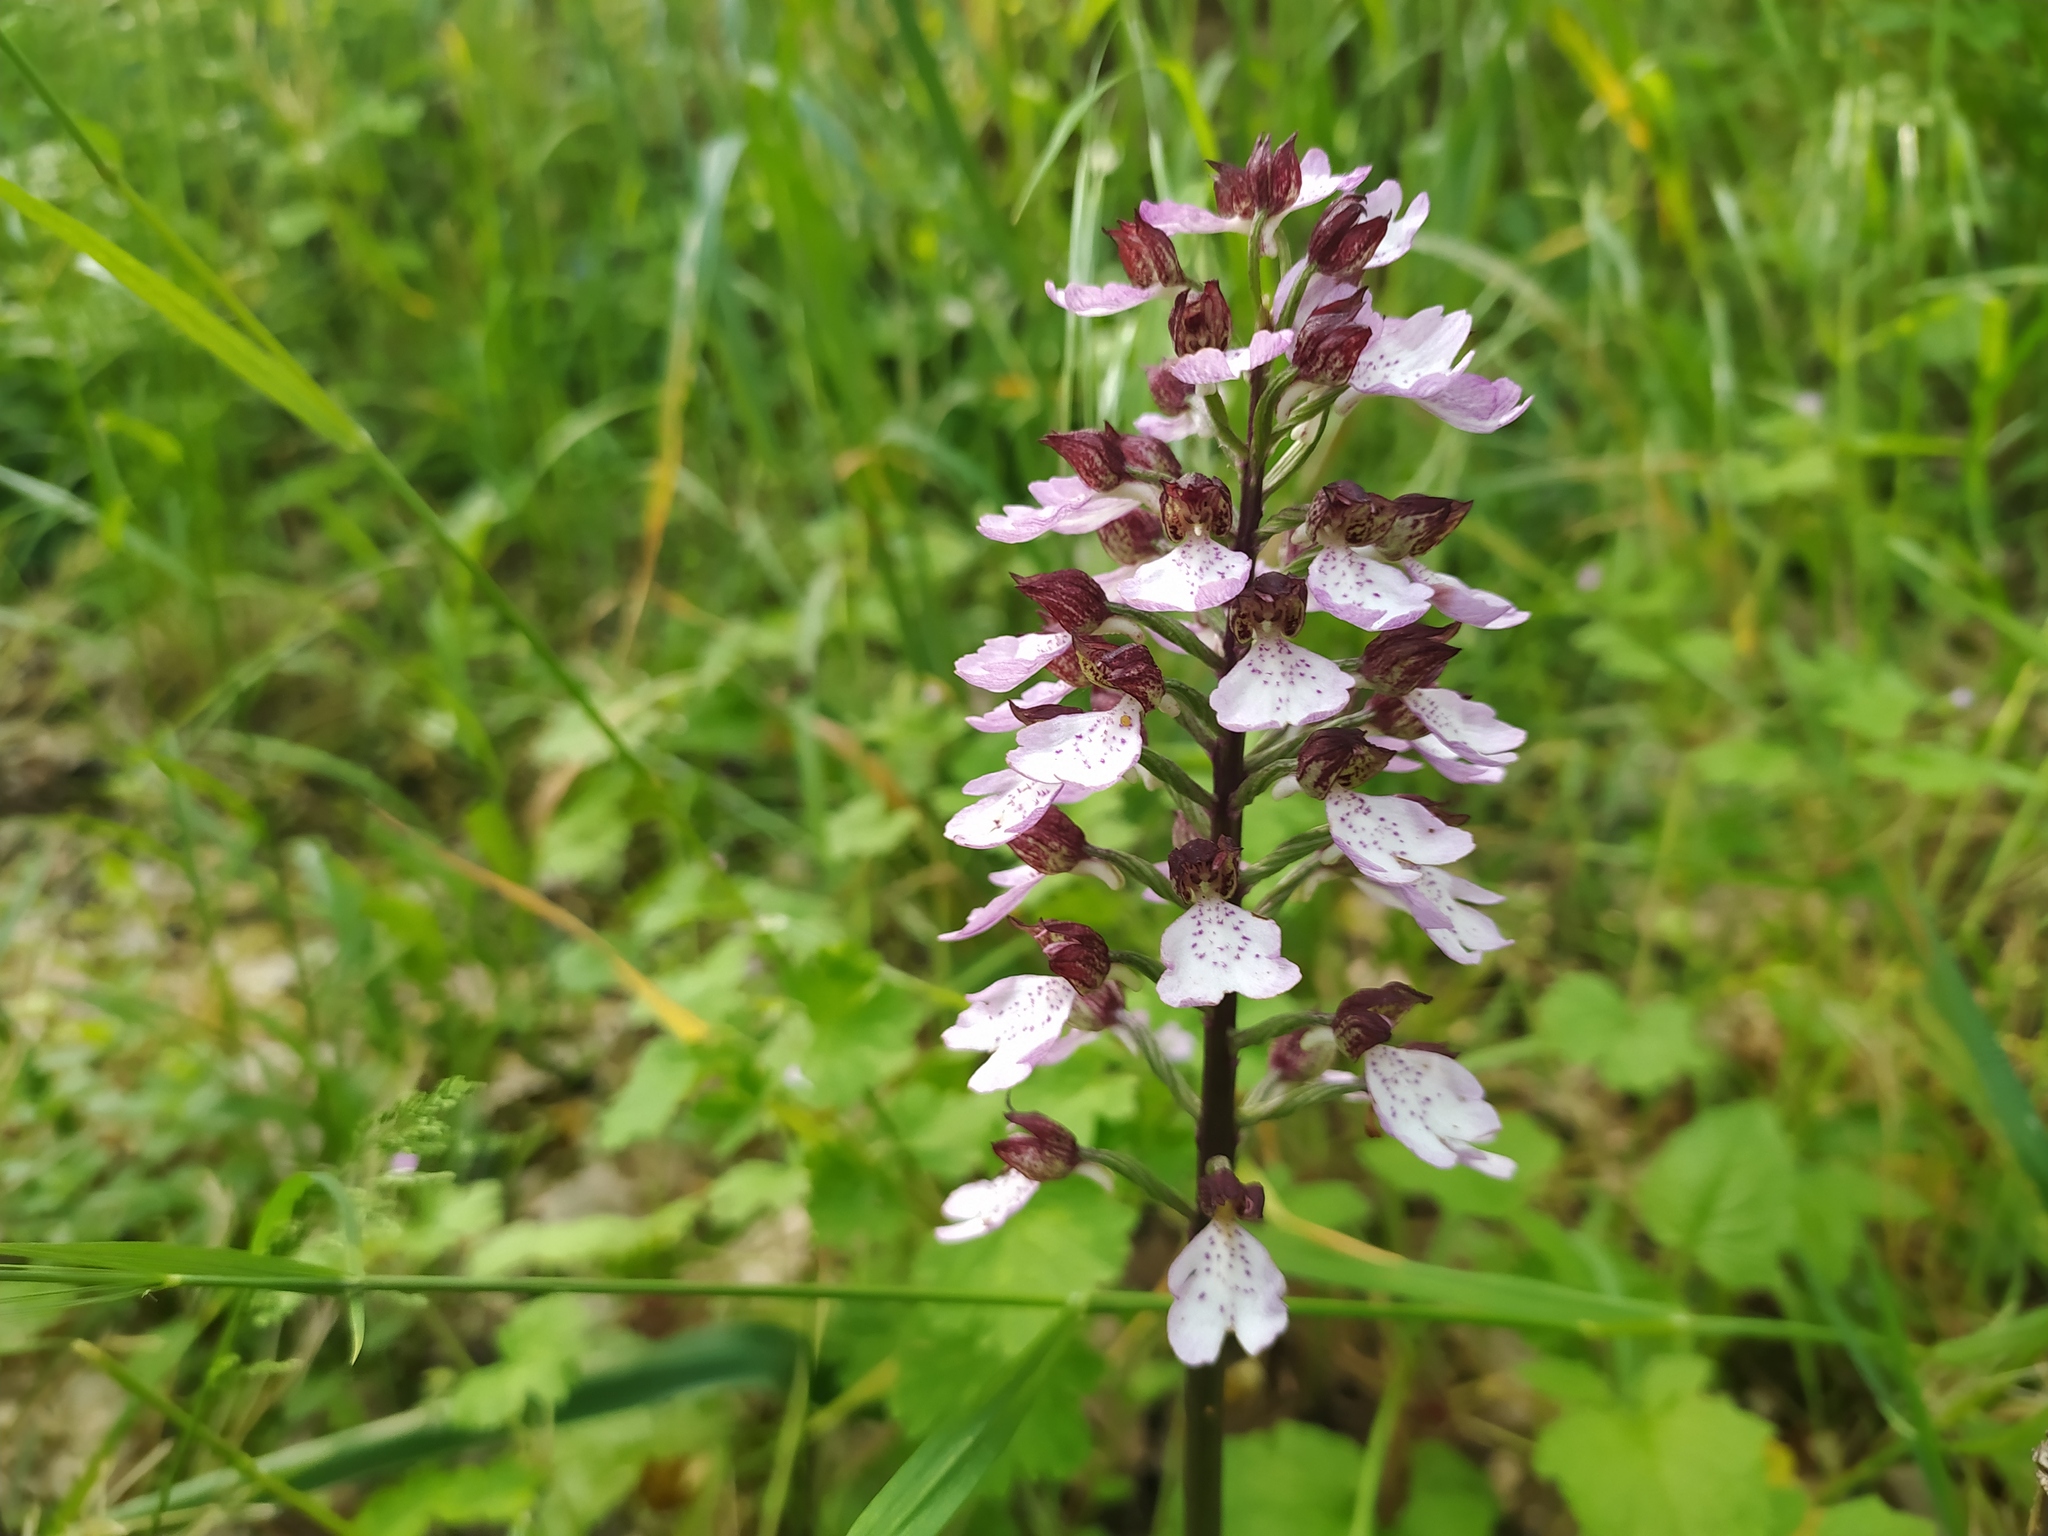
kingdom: Plantae
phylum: Tracheophyta
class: Liliopsida
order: Asparagales
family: Orchidaceae
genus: Orchis
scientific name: Orchis purpurea
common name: Lady orchid
